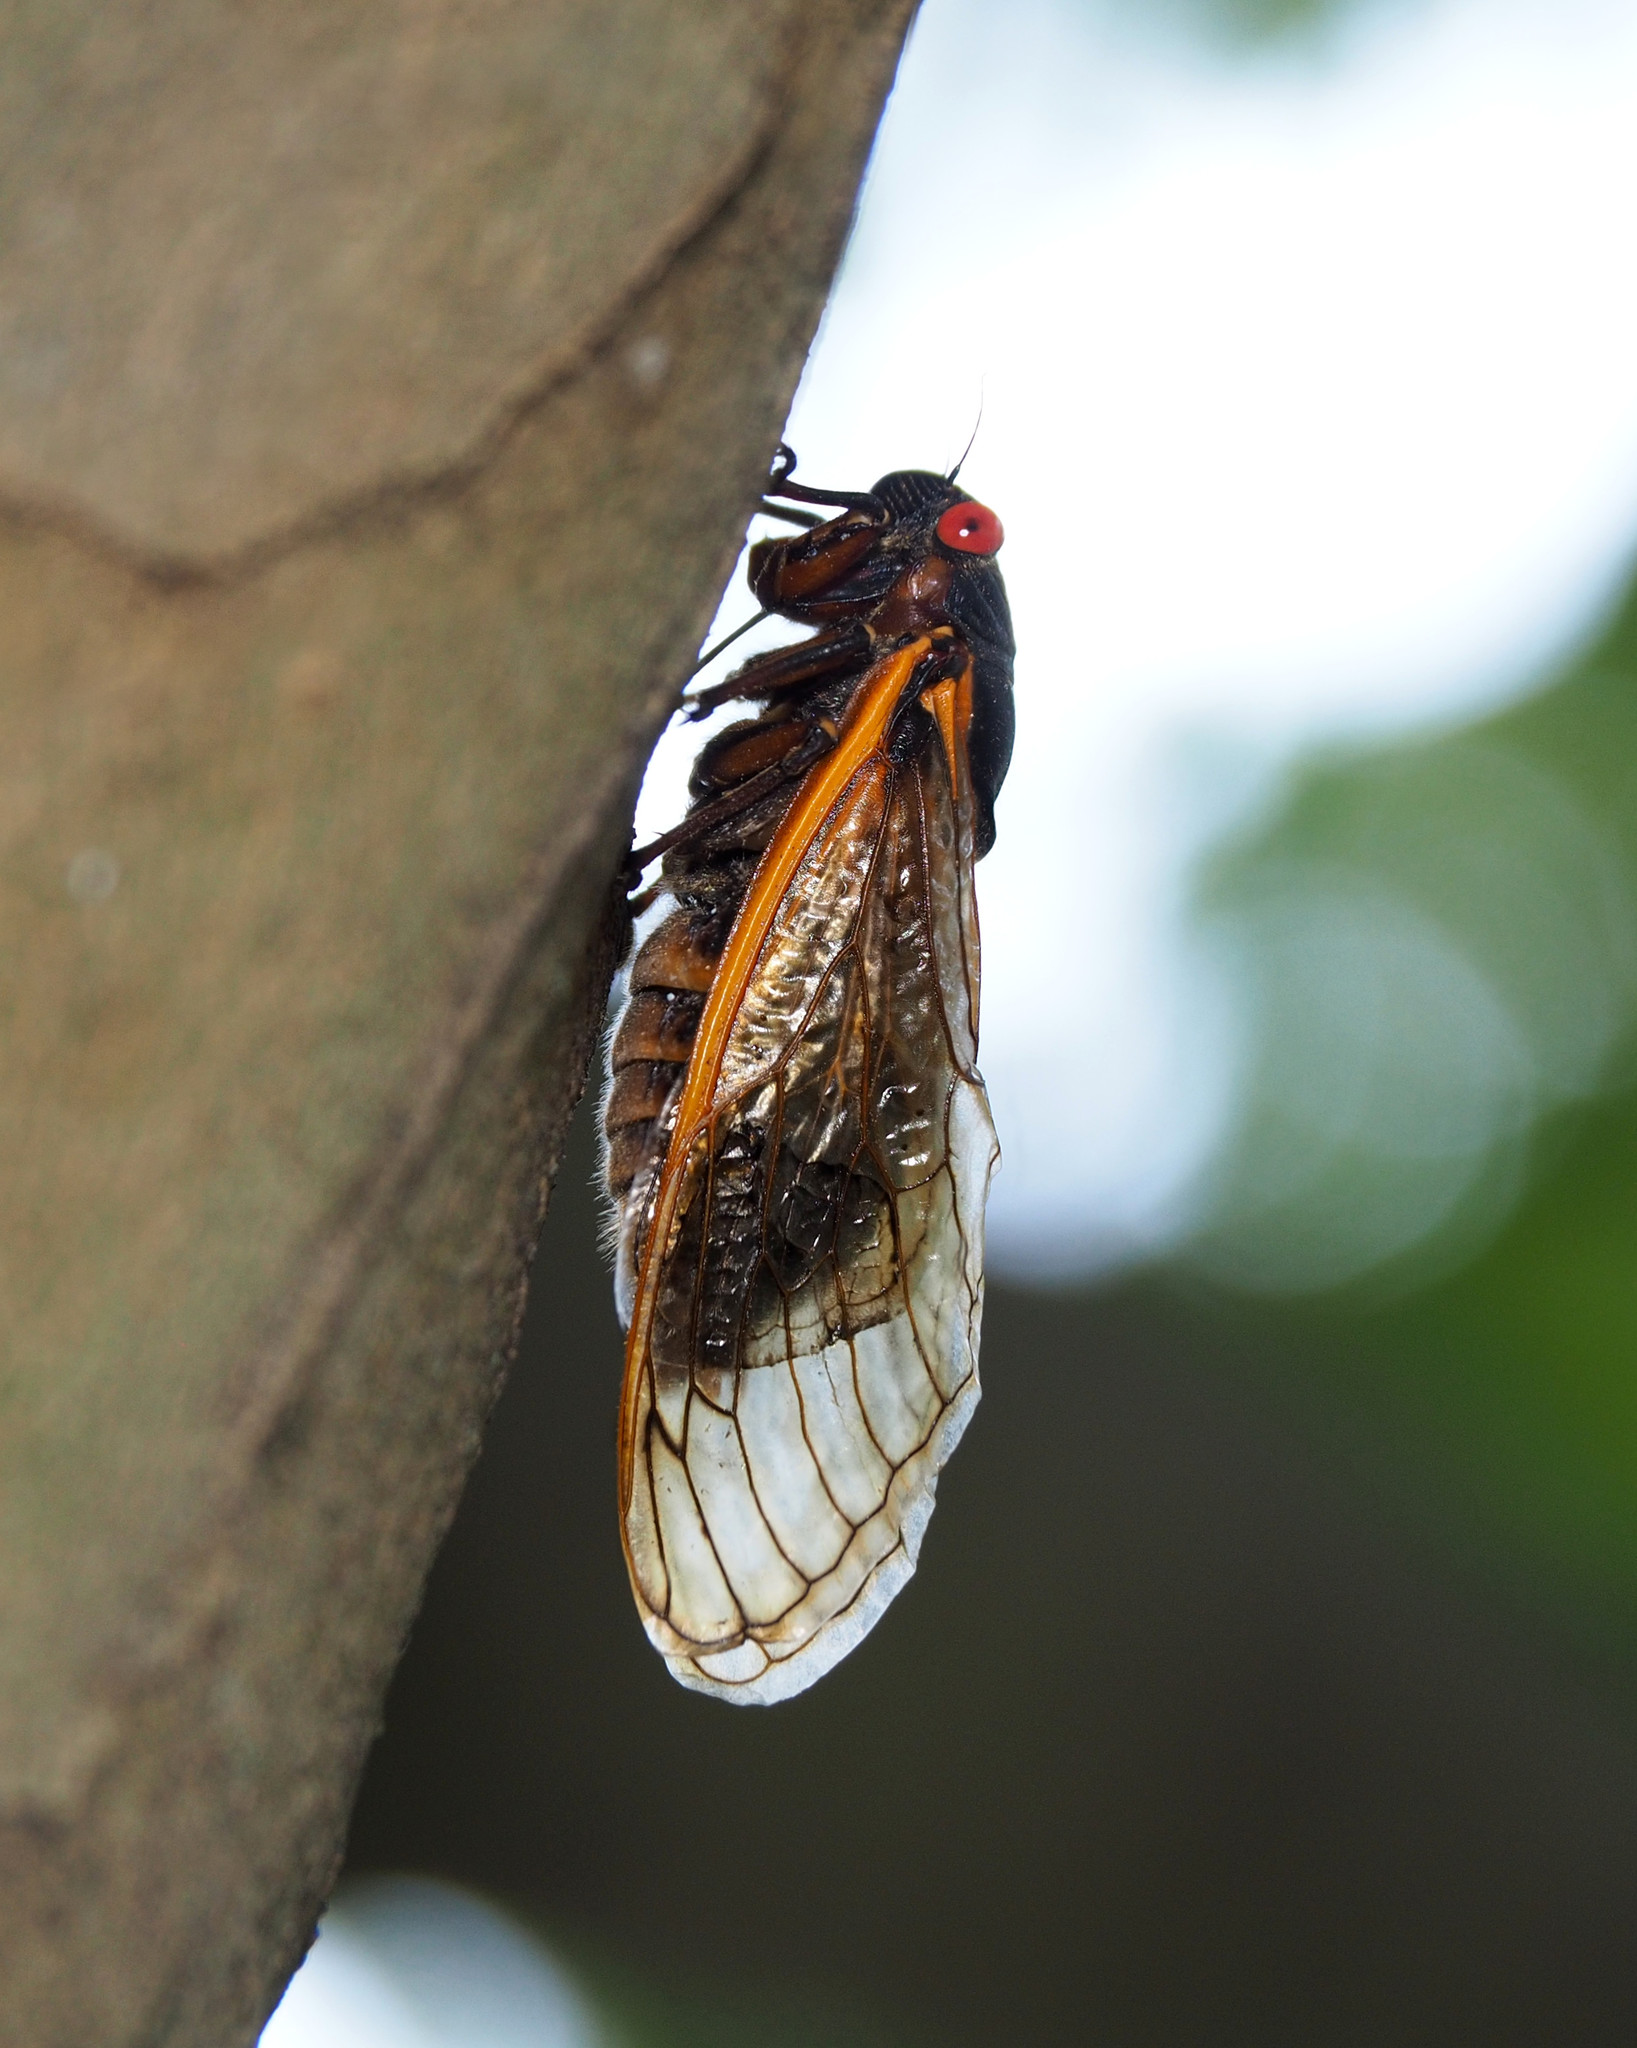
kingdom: Animalia
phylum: Arthropoda
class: Insecta
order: Hemiptera
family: Cicadidae
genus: Magicicada
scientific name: Magicicada septendecim
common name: Periodical cicada
